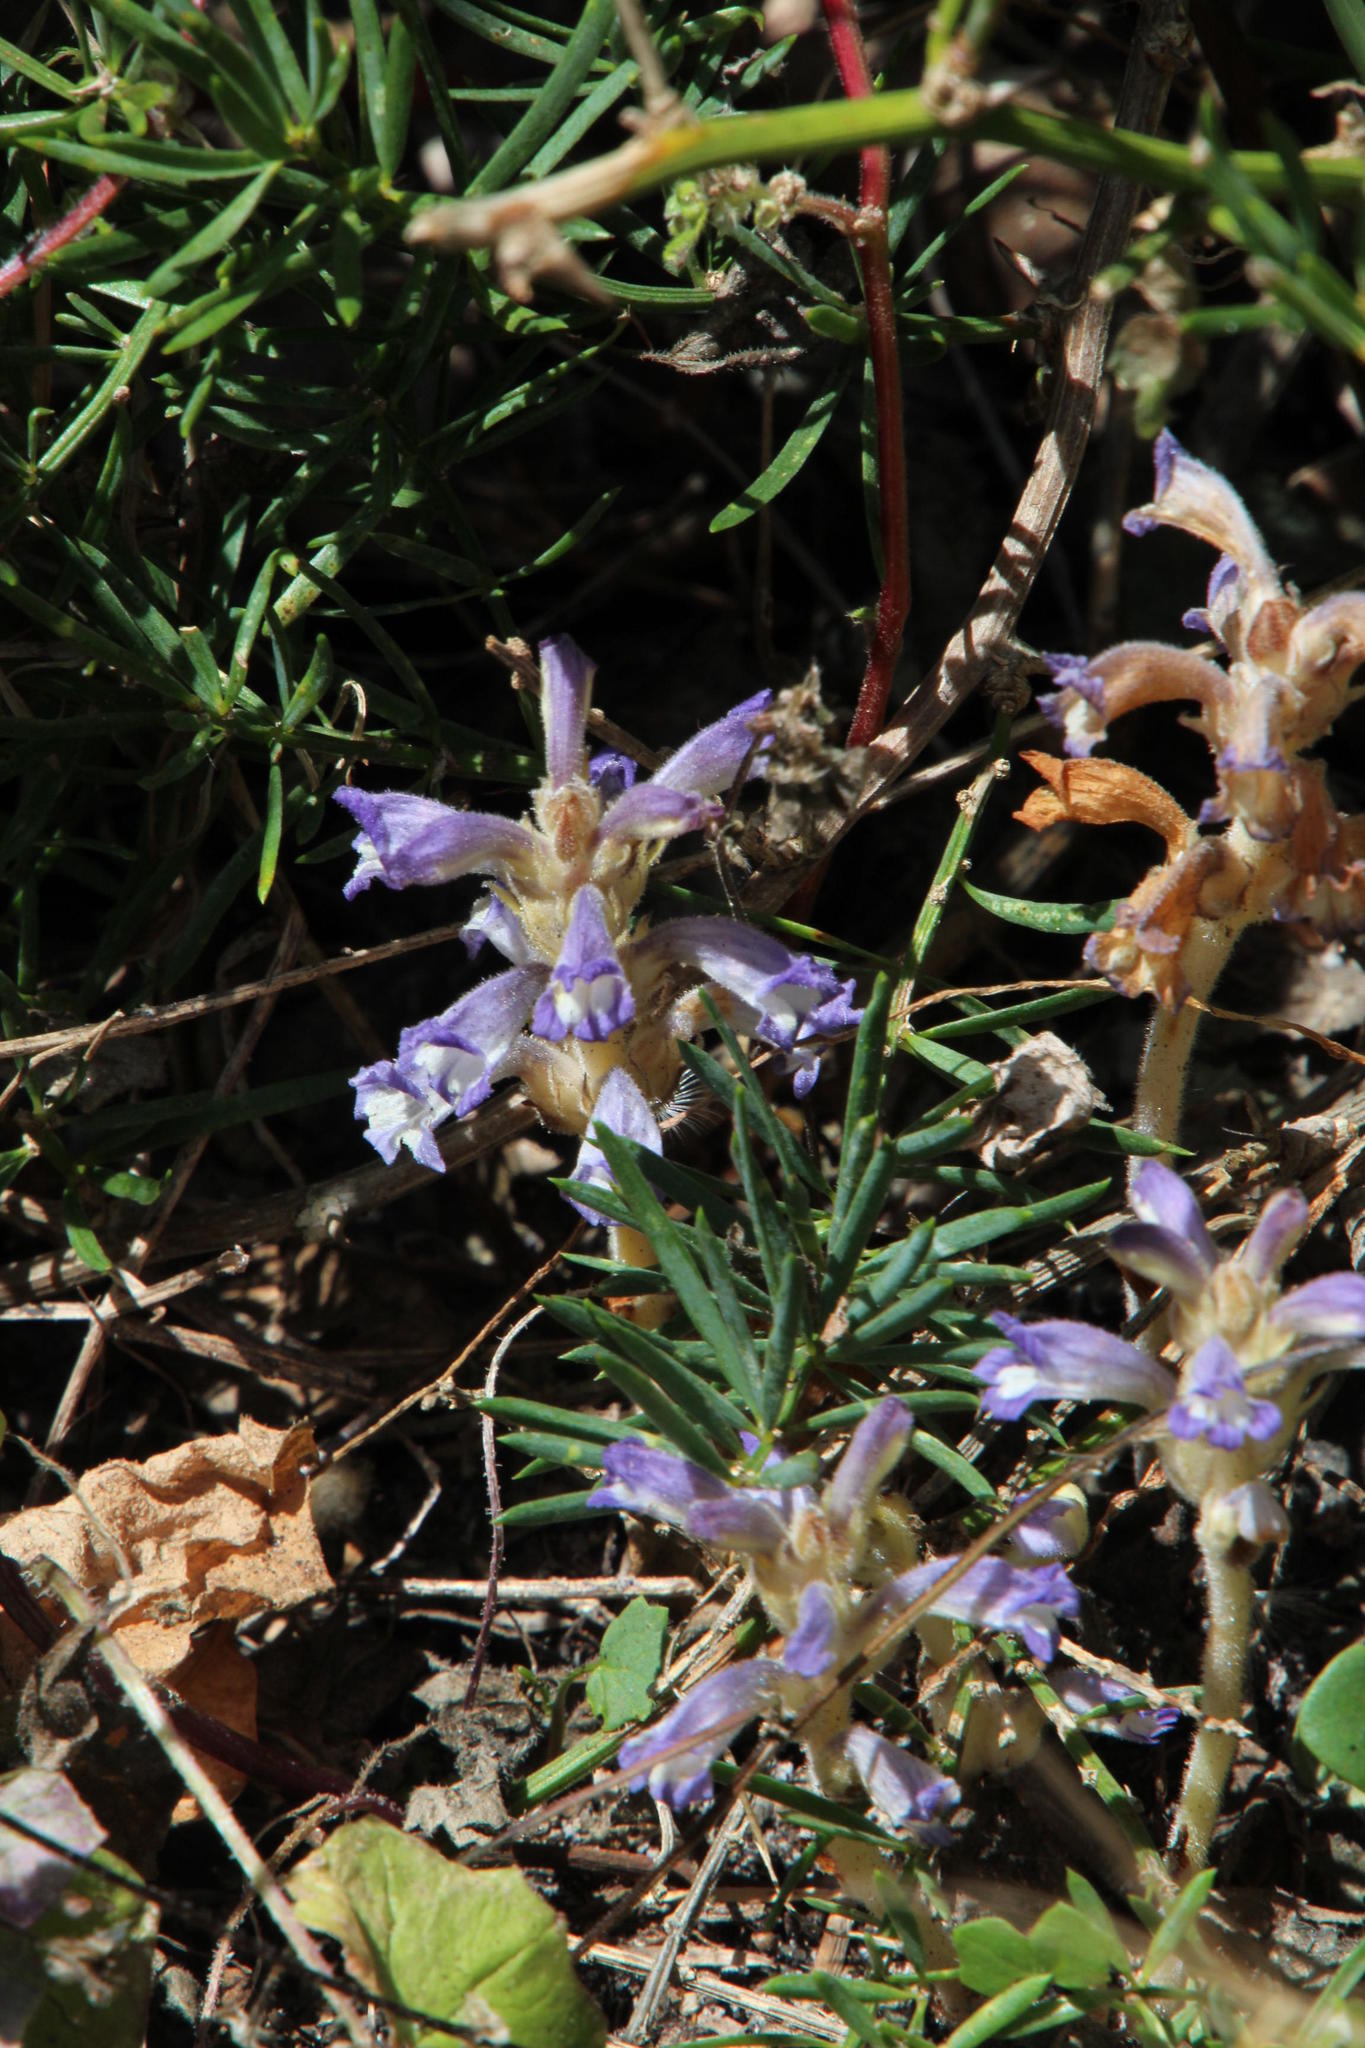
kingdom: Plantae
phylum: Tracheophyta
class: Magnoliopsida
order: Lamiales
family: Orobanchaceae
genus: Phelipanche
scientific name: Phelipanche mutelii
